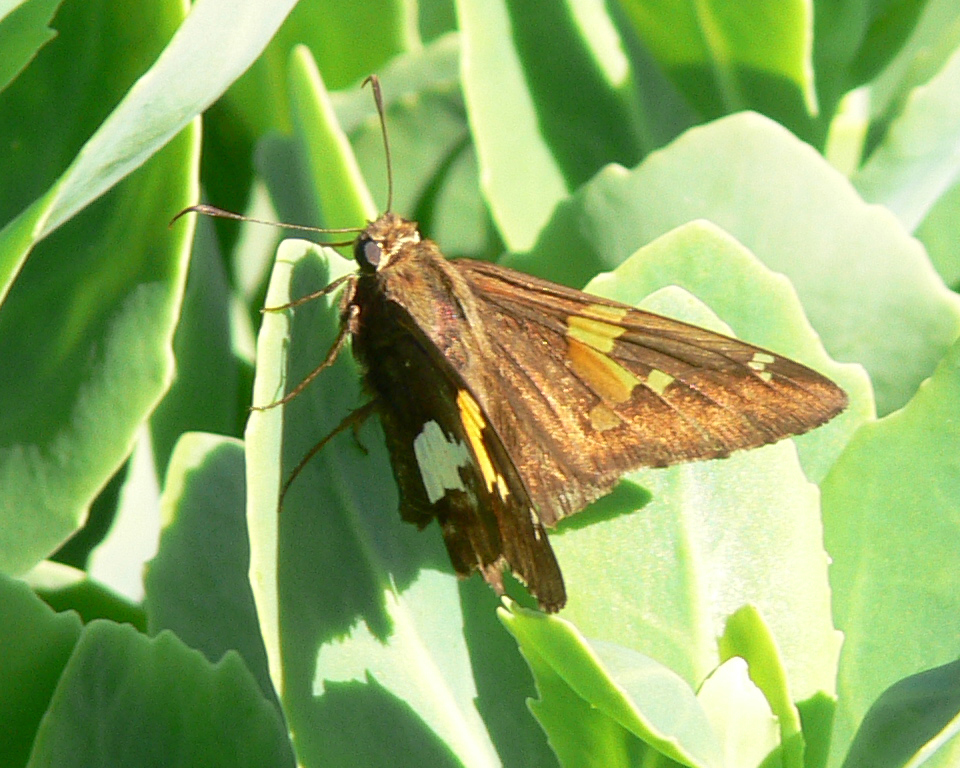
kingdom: Animalia
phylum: Arthropoda
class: Insecta
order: Lepidoptera
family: Hesperiidae
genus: Epargyreus
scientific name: Epargyreus clarus
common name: Silver-spotted skipper
